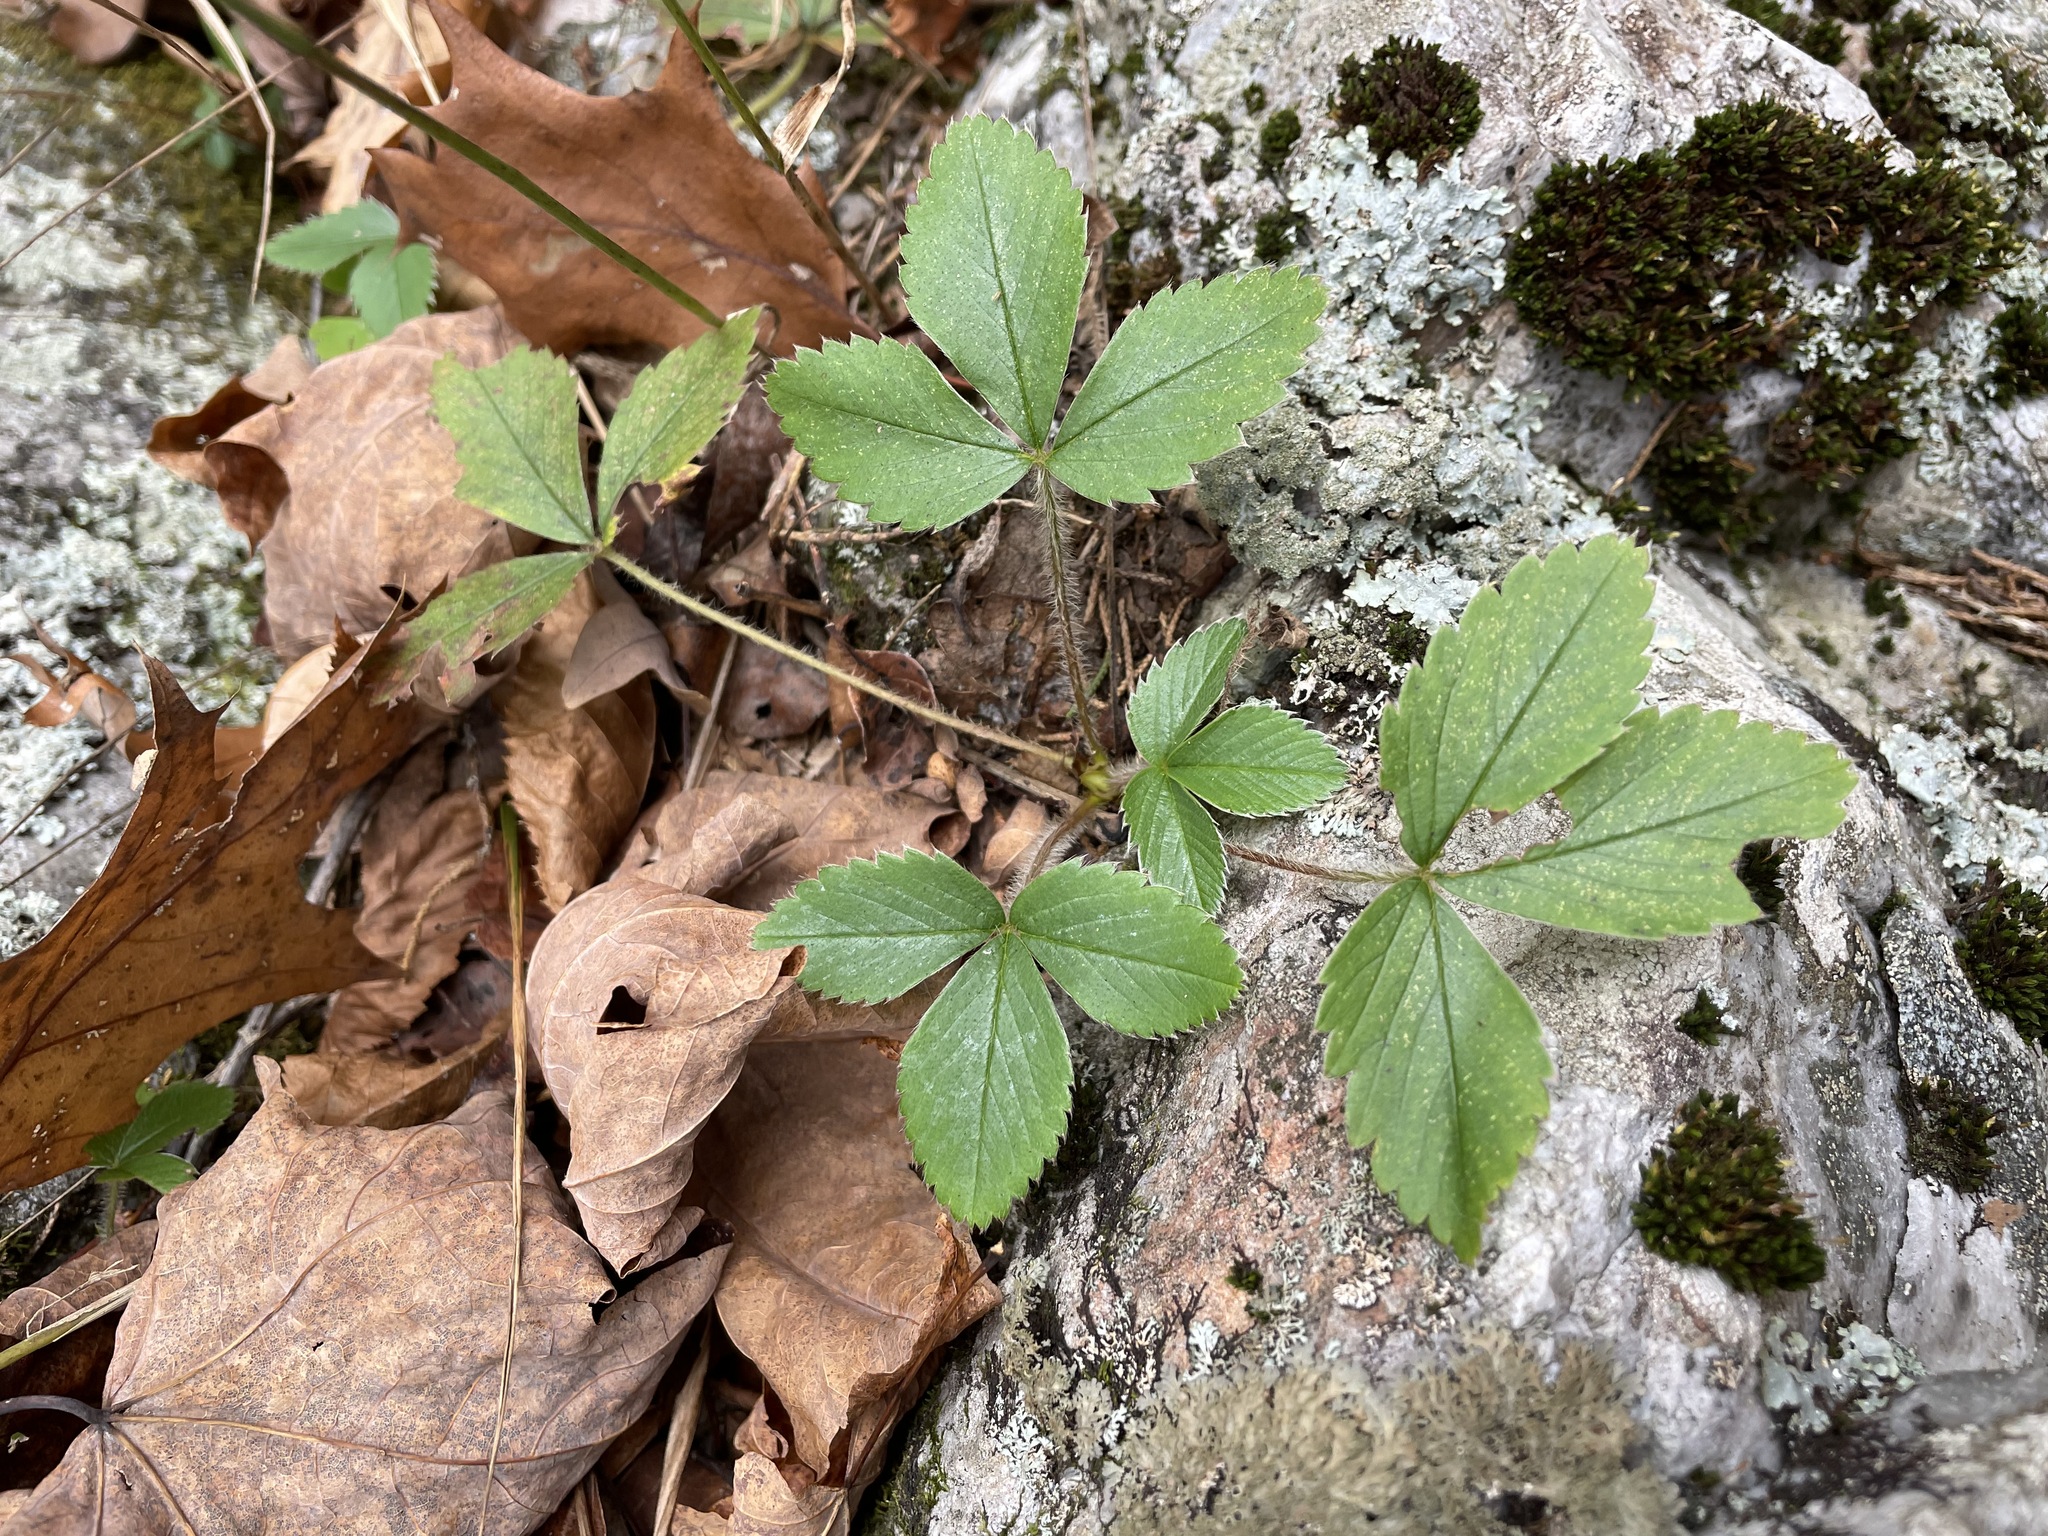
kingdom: Plantae
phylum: Tracheophyta
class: Magnoliopsida
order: Rosales
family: Rosaceae
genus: Fragaria
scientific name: Fragaria virginiana
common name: Thickleaved wild strawberry
